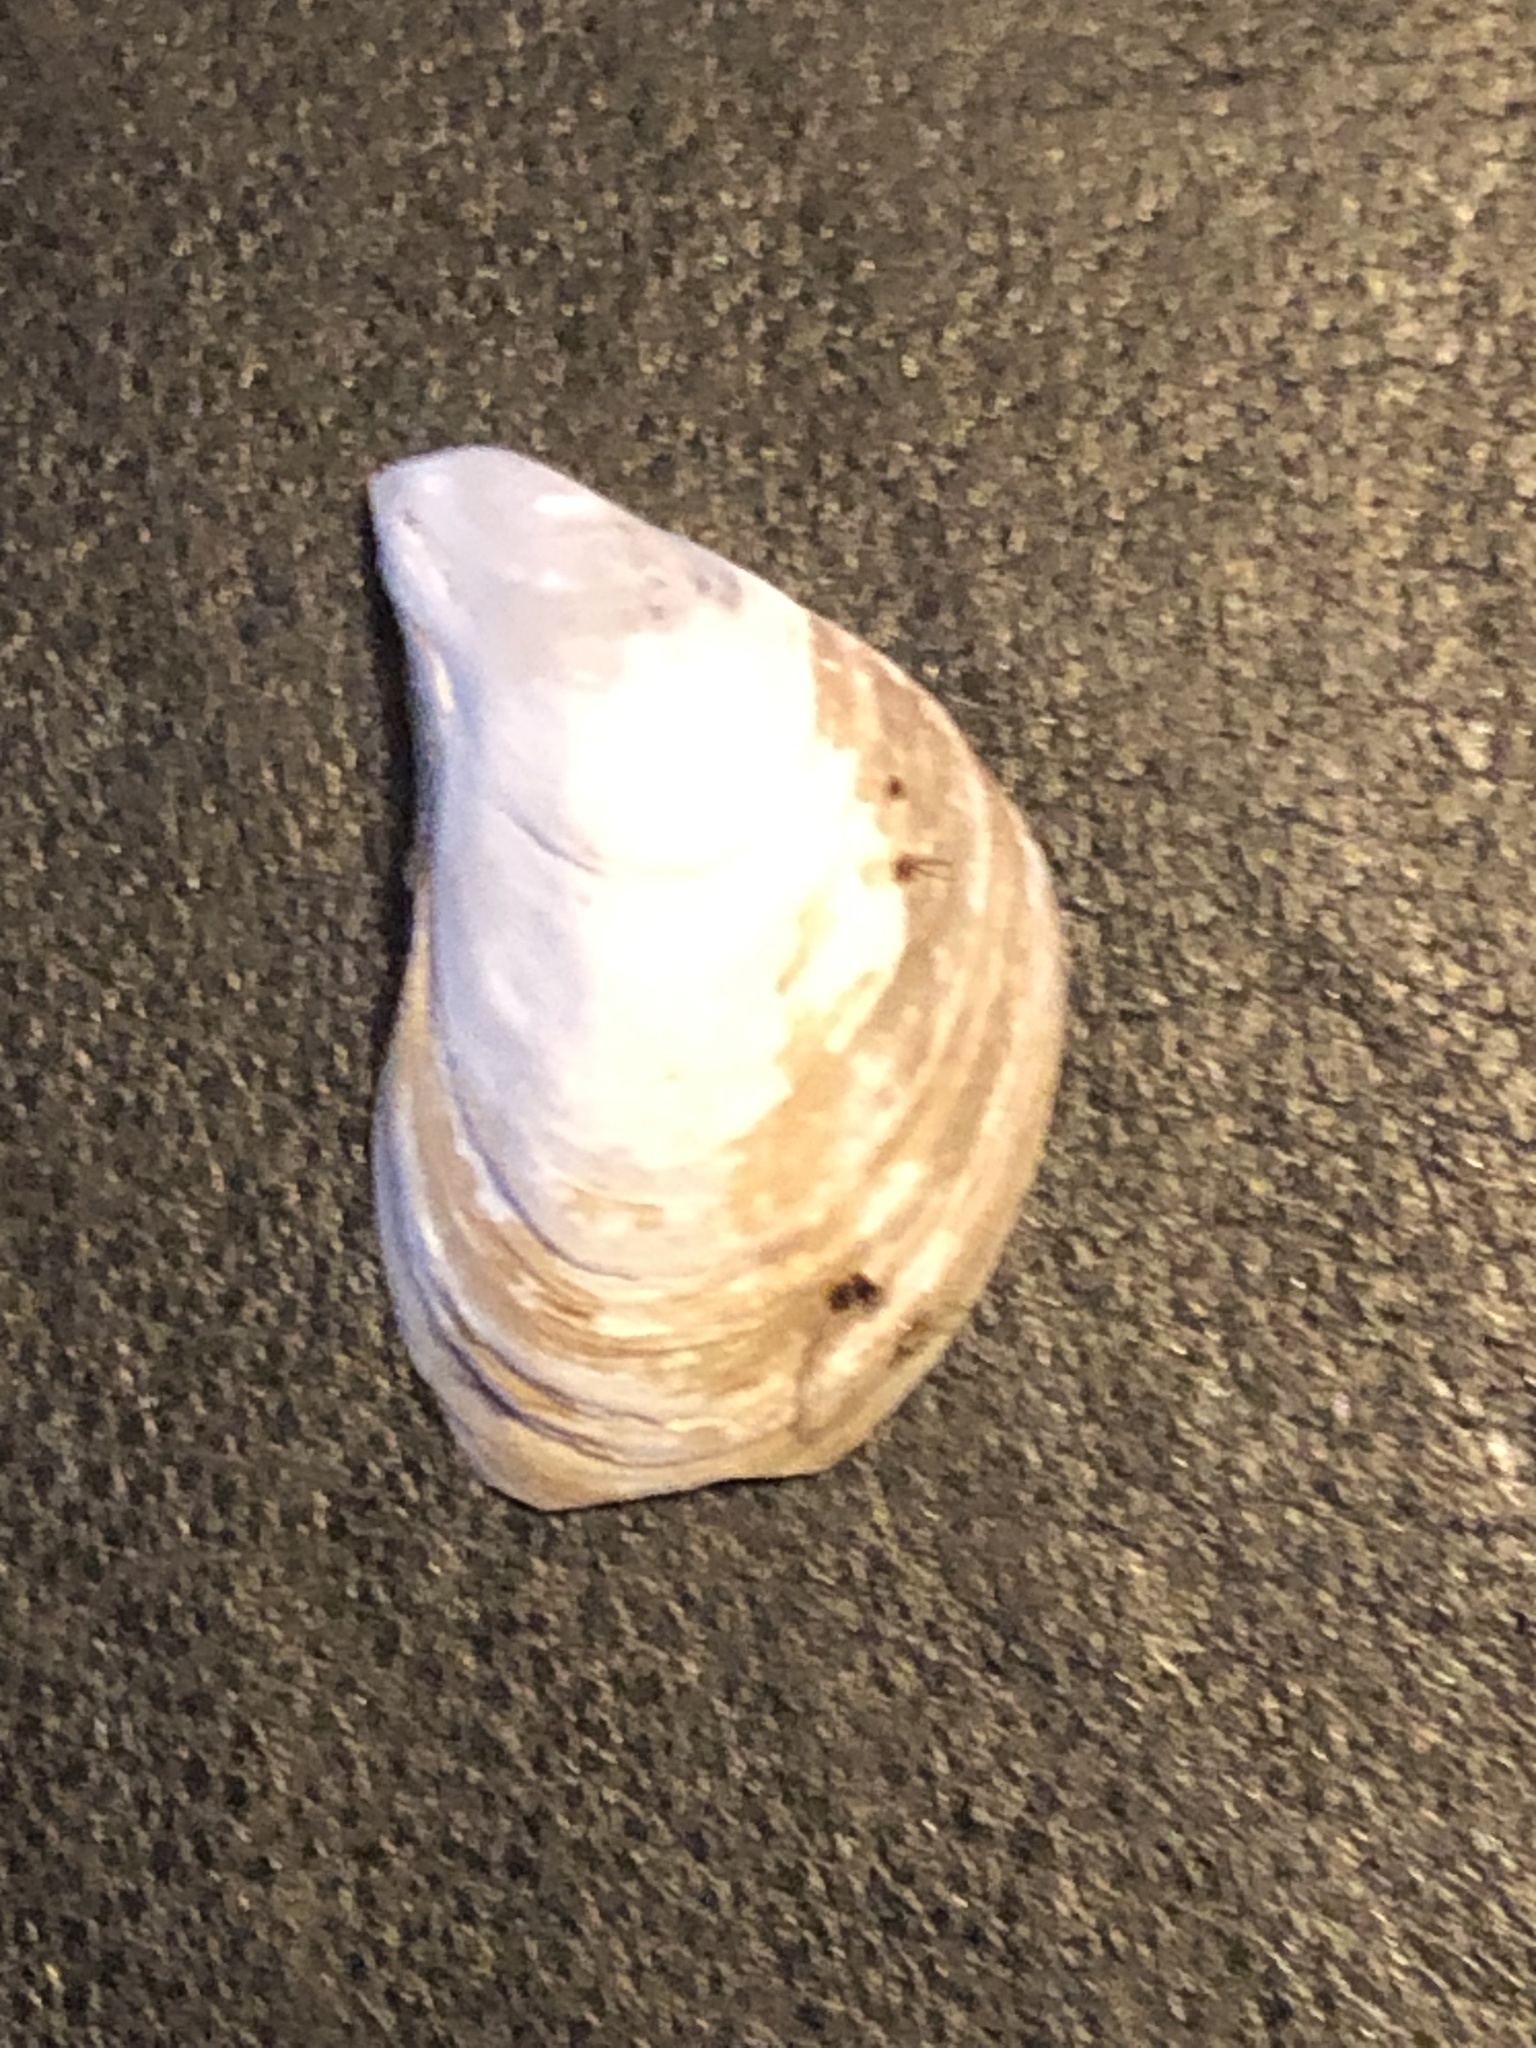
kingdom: Animalia
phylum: Mollusca
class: Bivalvia
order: Myida
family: Dreissenidae
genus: Dreissena
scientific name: Dreissena bugensis
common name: Quagga mussel
